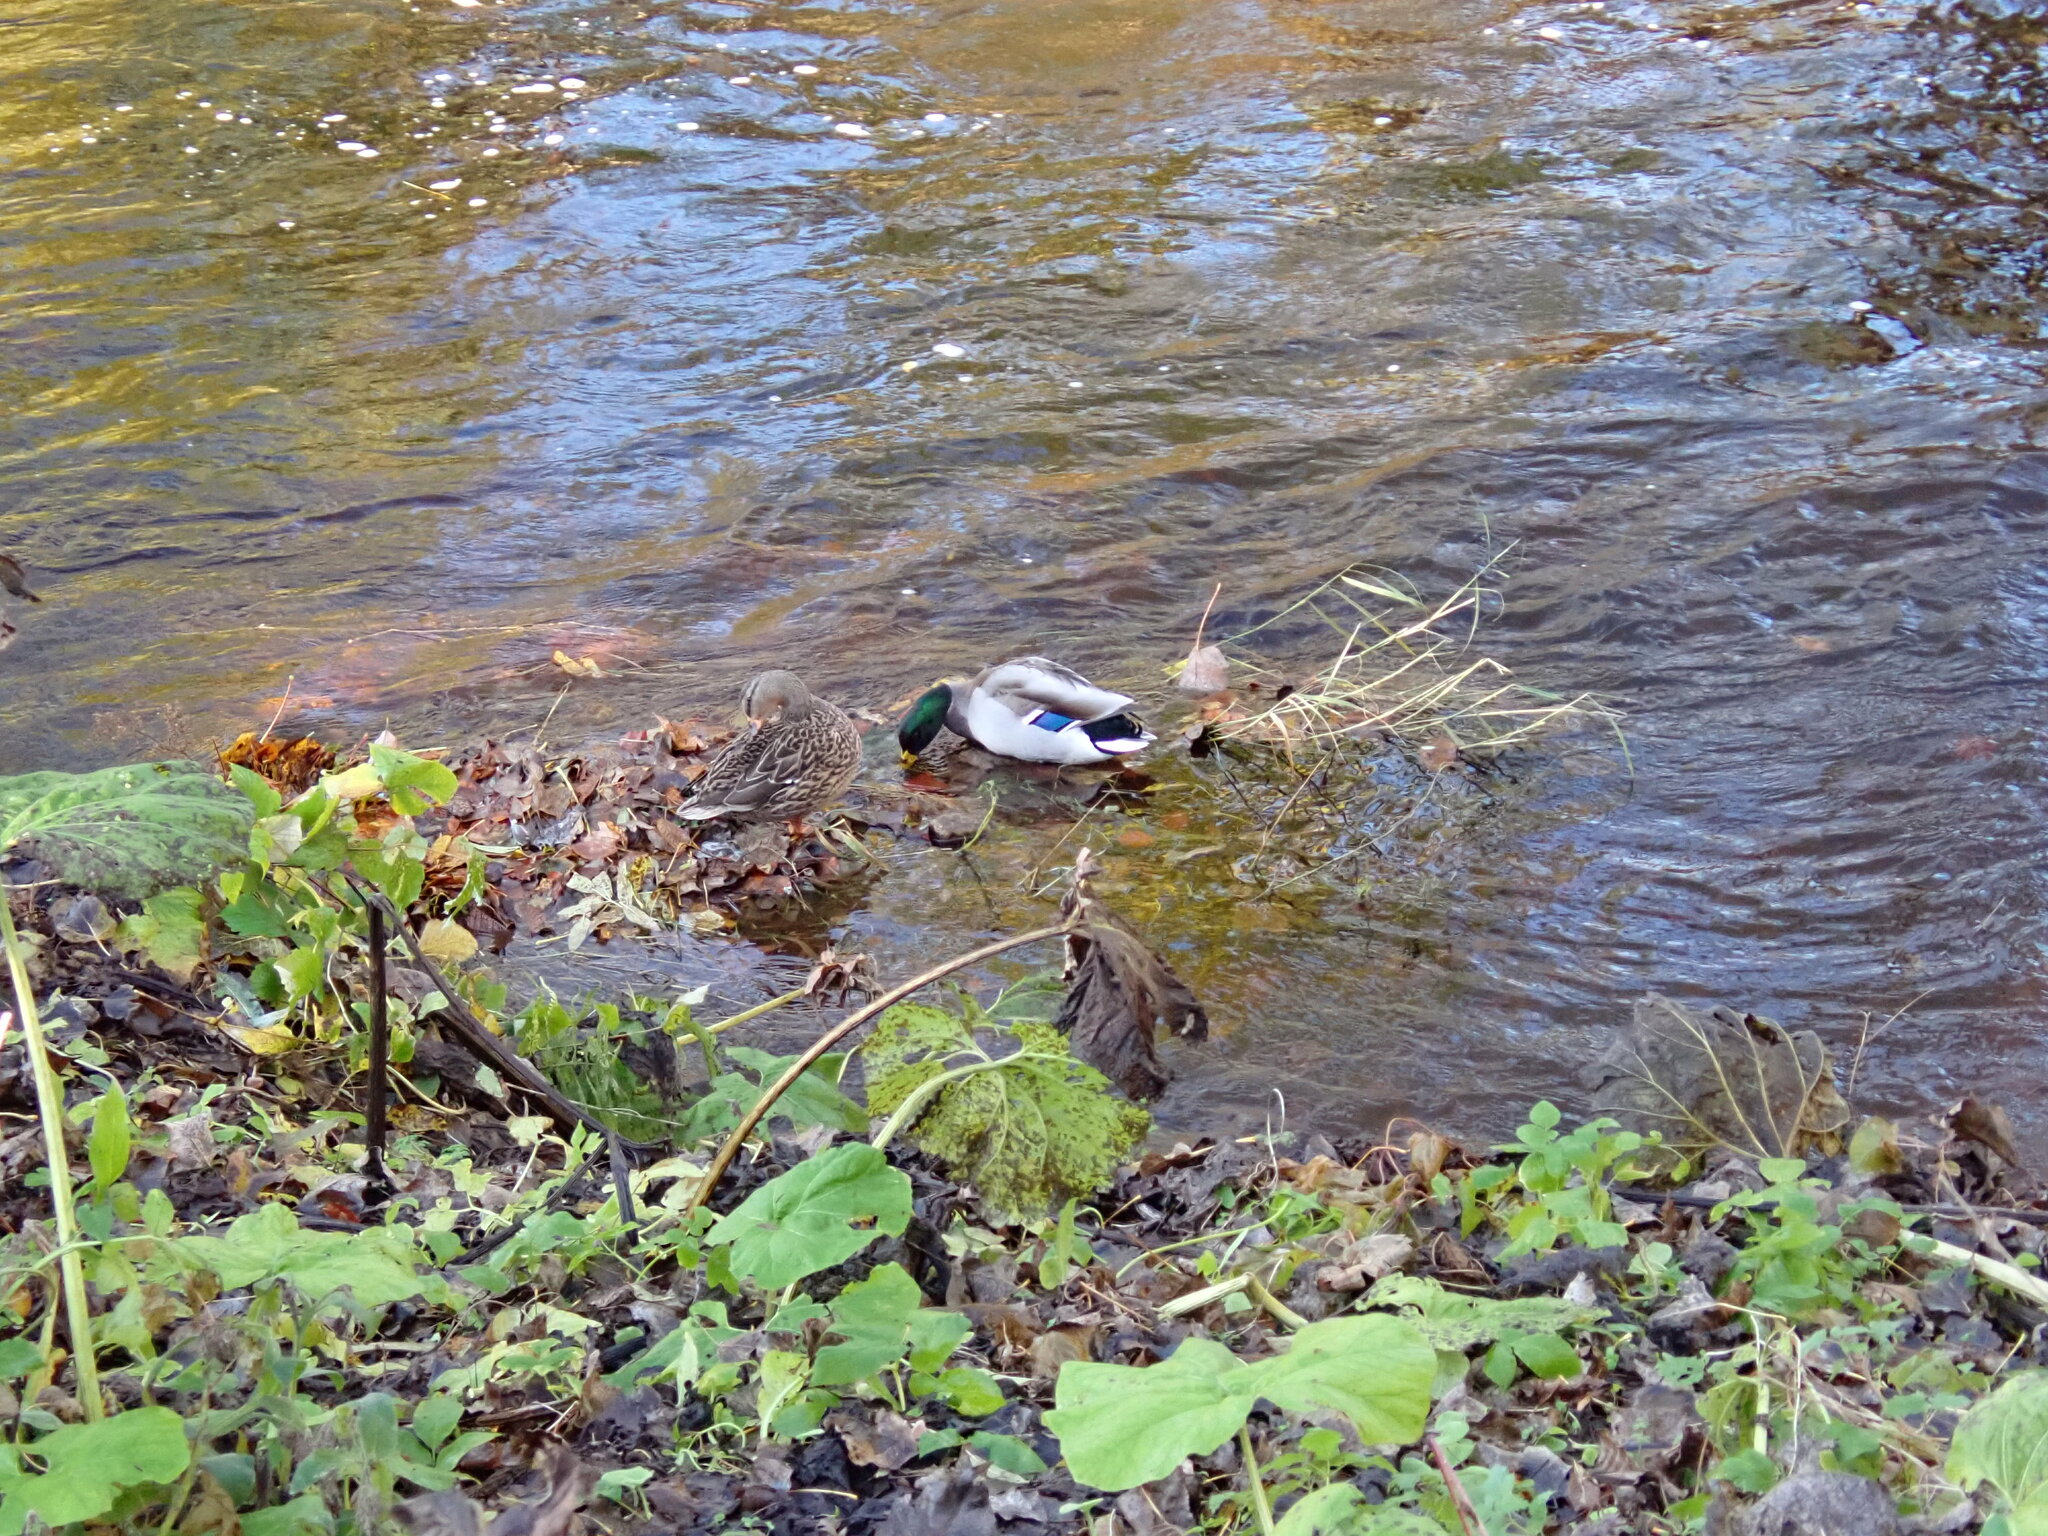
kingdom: Animalia
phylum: Chordata
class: Aves
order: Anseriformes
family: Anatidae
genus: Anas
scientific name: Anas platyrhynchos
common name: Mallard
